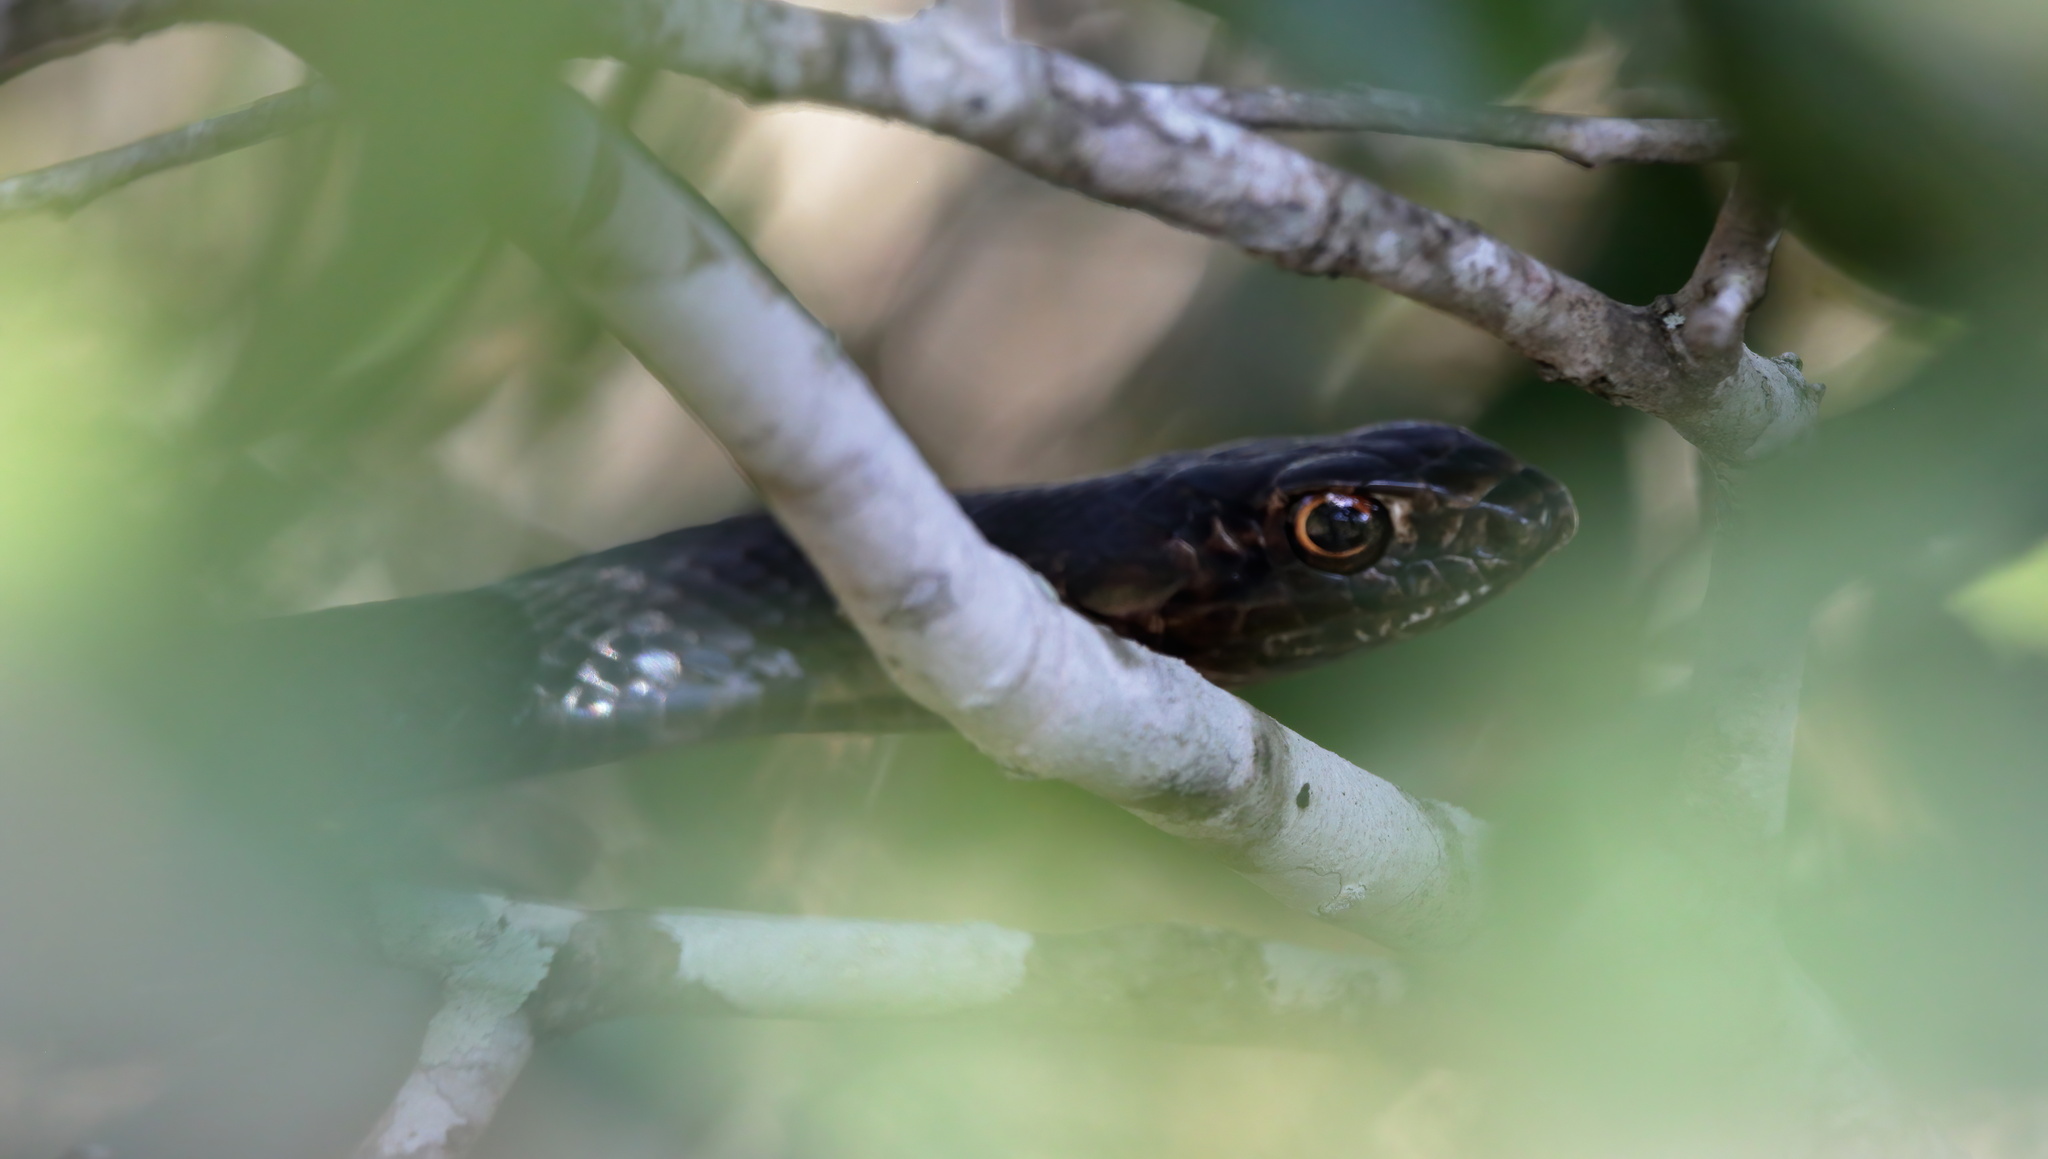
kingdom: Animalia
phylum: Chordata
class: Squamata
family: Colubridae
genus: Masticophis
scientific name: Masticophis flagellum
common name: Coachwhip
